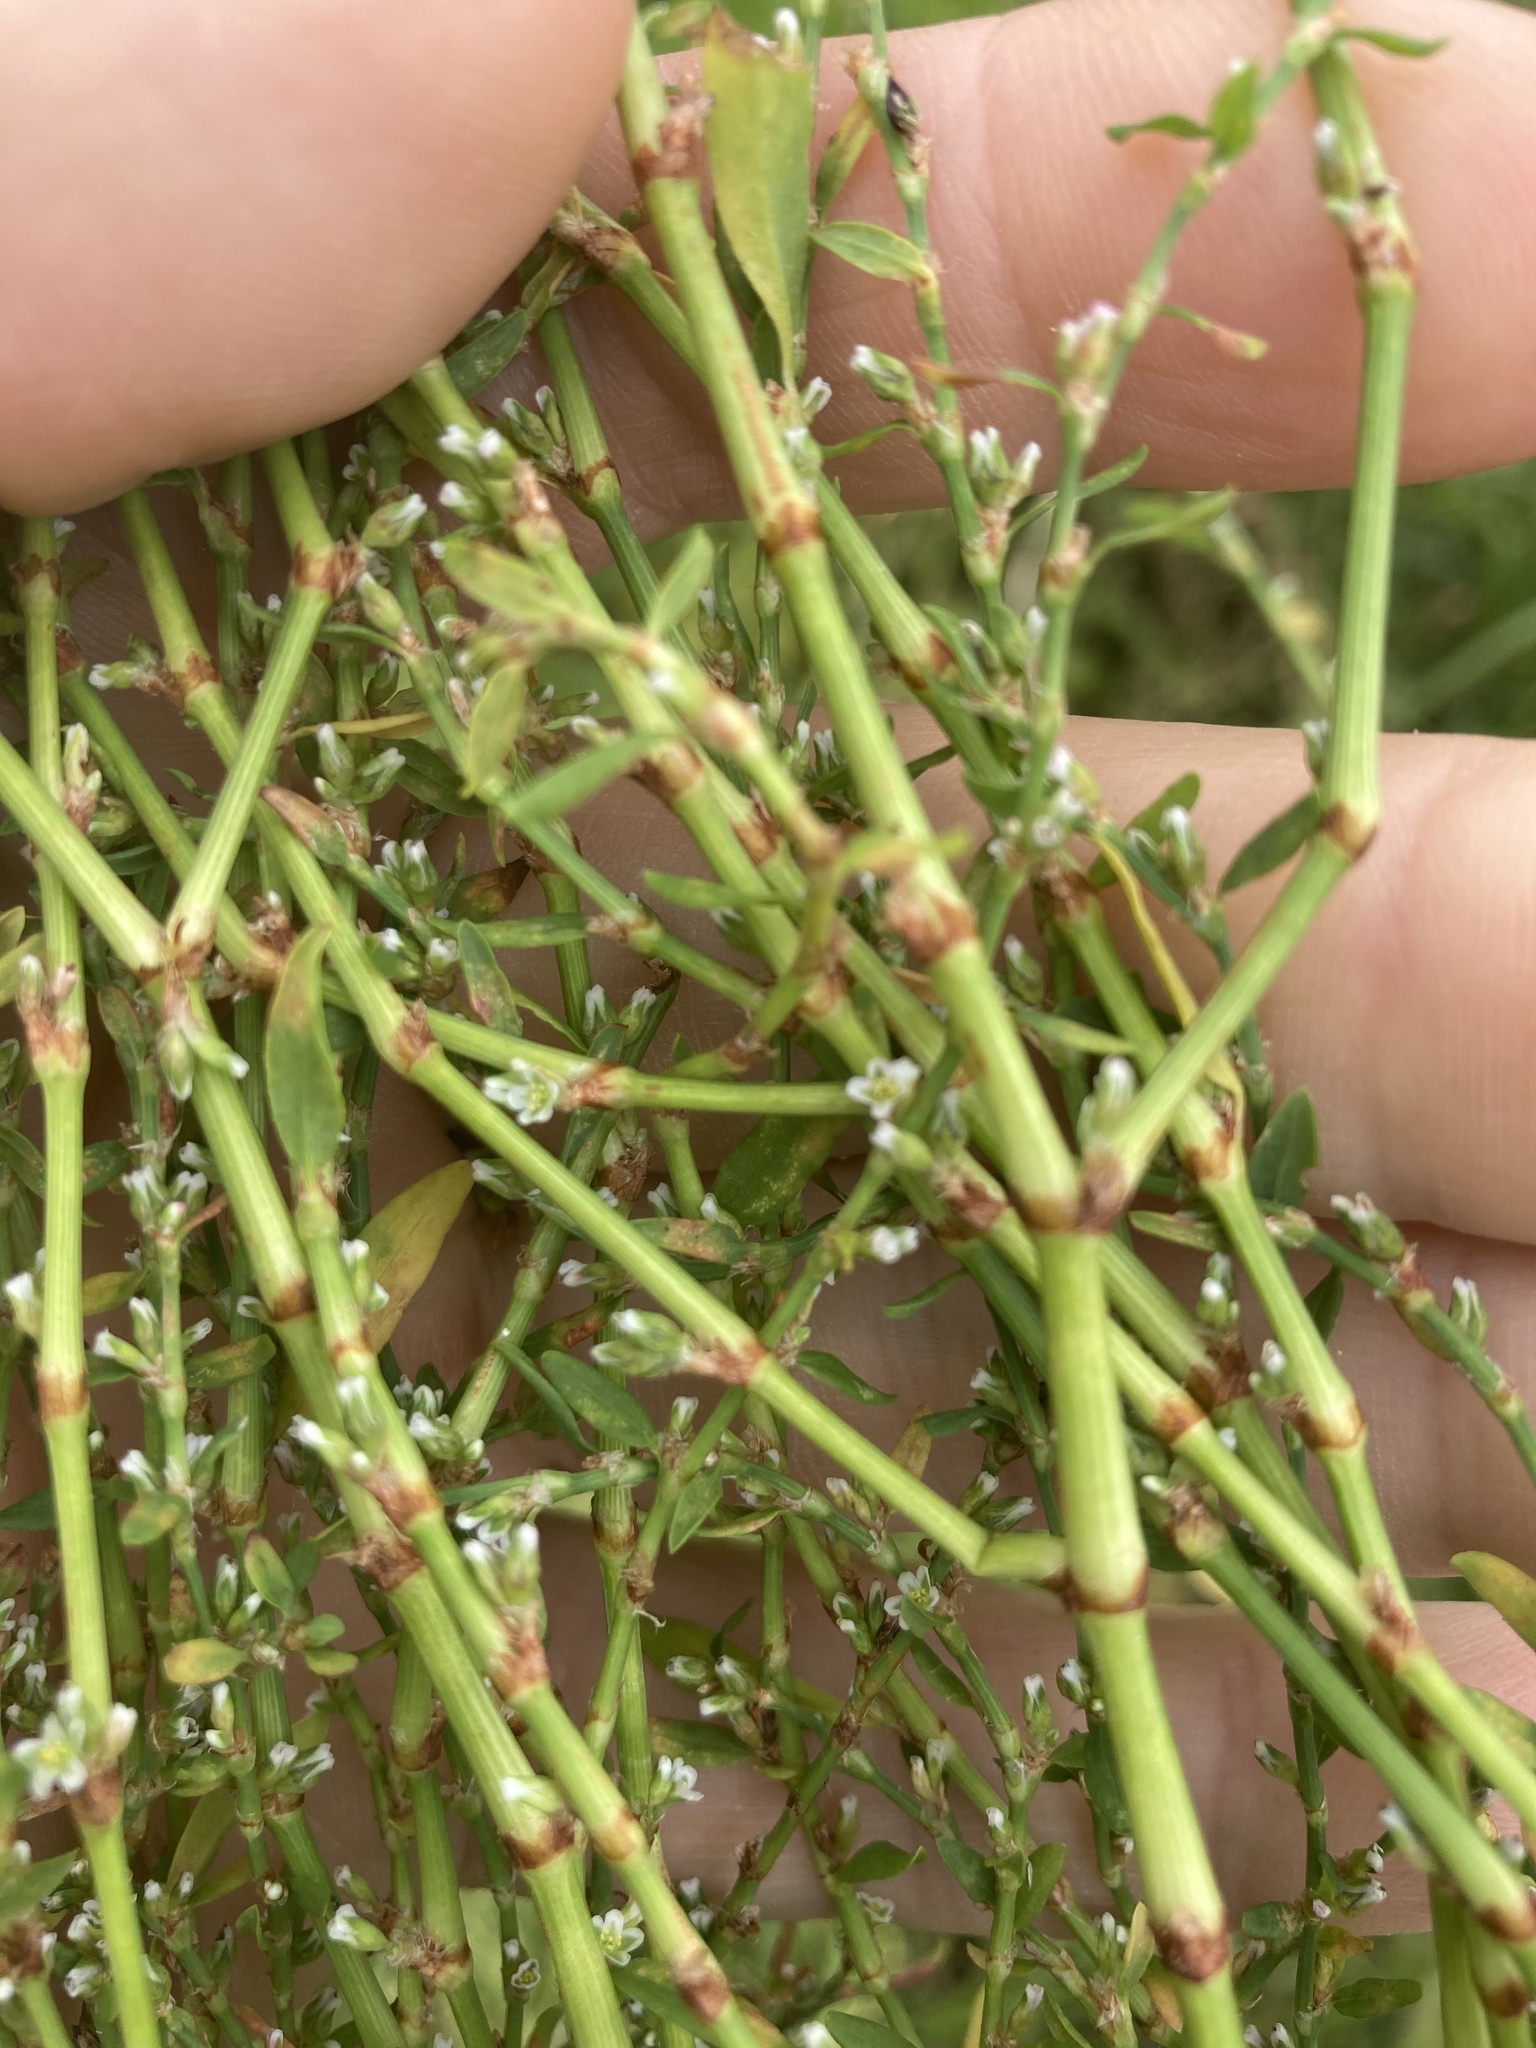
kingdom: Plantae
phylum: Tracheophyta
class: Magnoliopsida
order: Caryophyllales
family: Polygonaceae
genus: Polygonum
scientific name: Polygonum aviculare
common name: Prostrate knotweed
